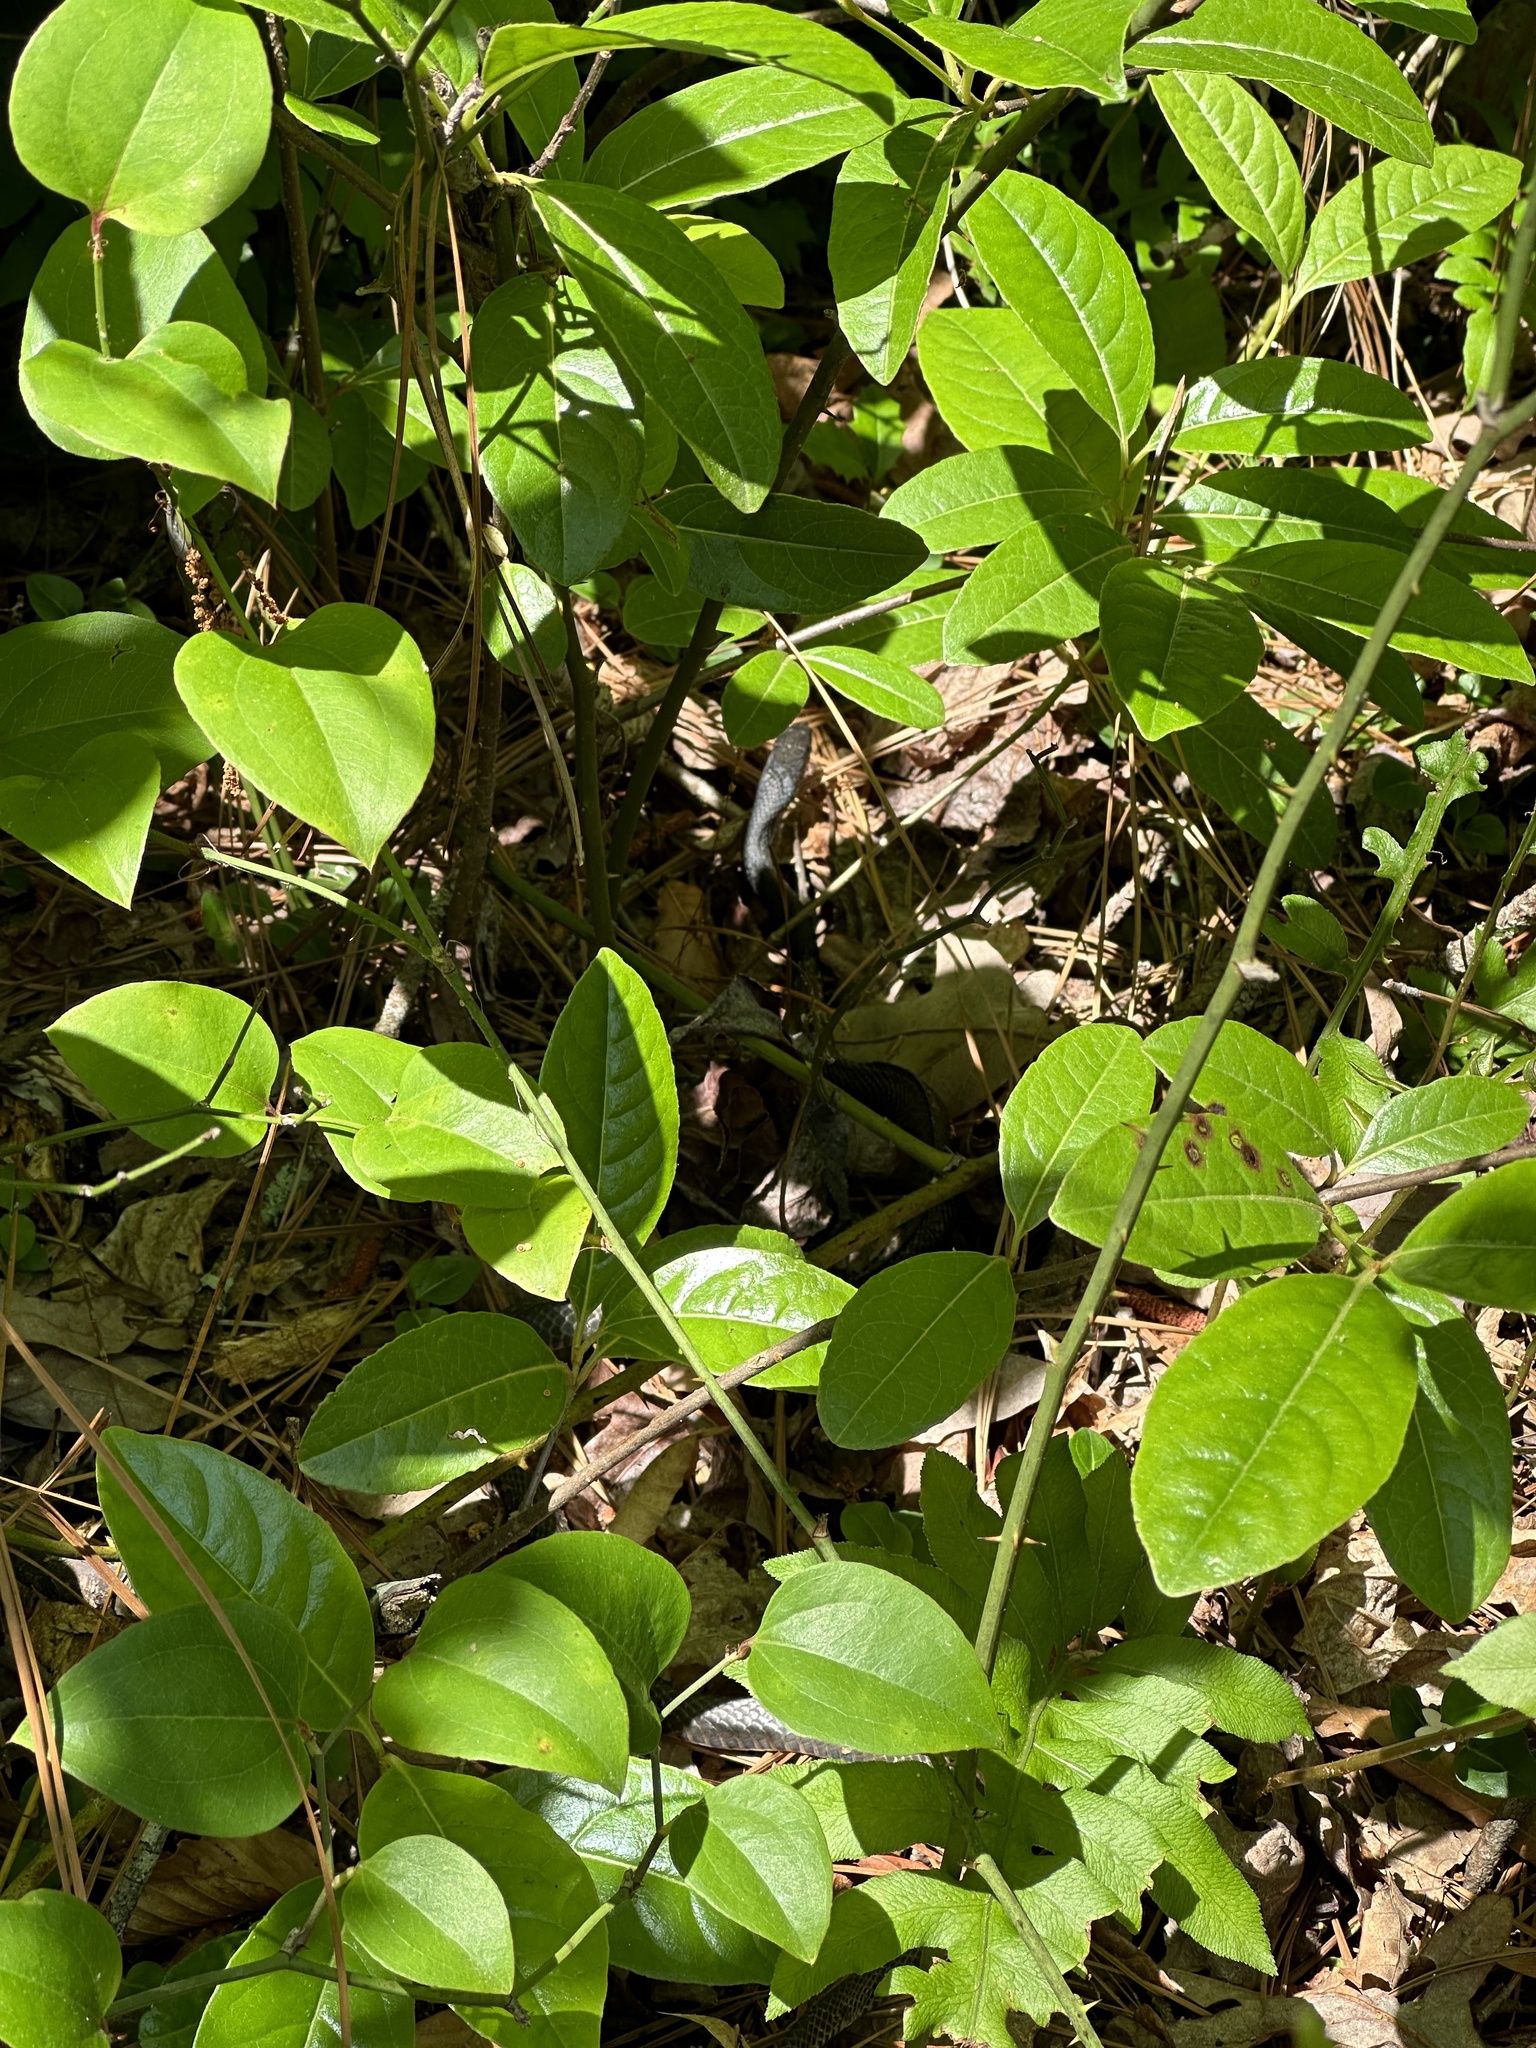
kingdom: Animalia
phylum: Chordata
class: Squamata
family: Colubridae
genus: Coluber
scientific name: Coluber constrictor
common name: Eastern racer
